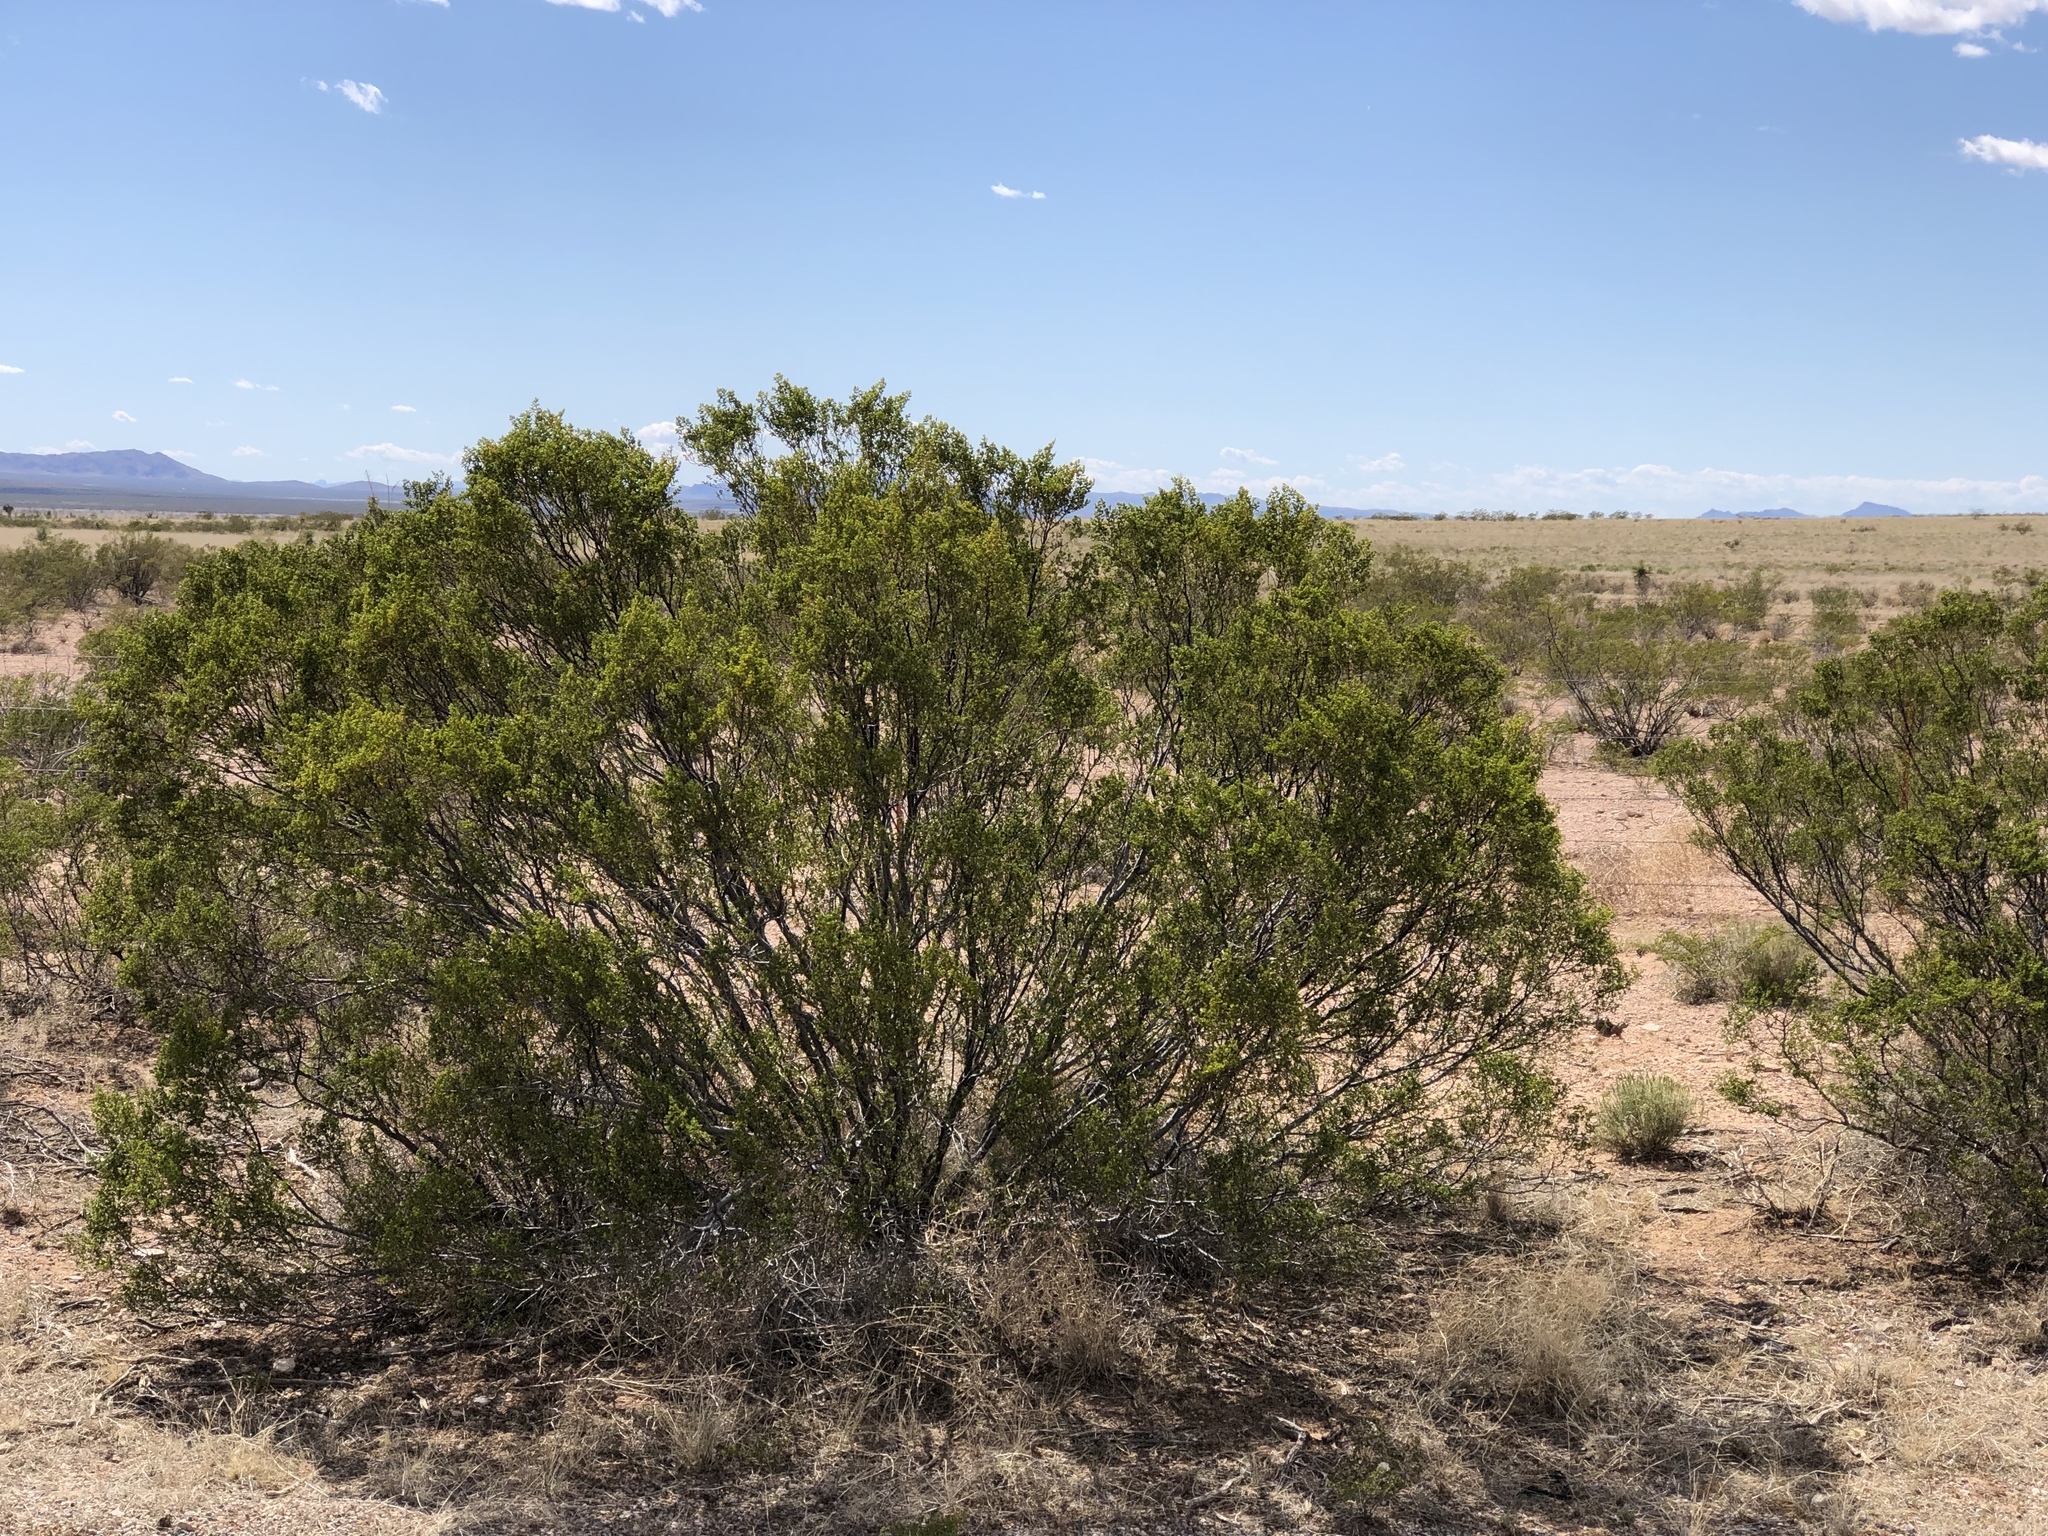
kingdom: Plantae
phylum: Tracheophyta
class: Magnoliopsida
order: Zygophyllales
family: Zygophyllaceae
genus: Larrea
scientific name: Larrea tridentata
